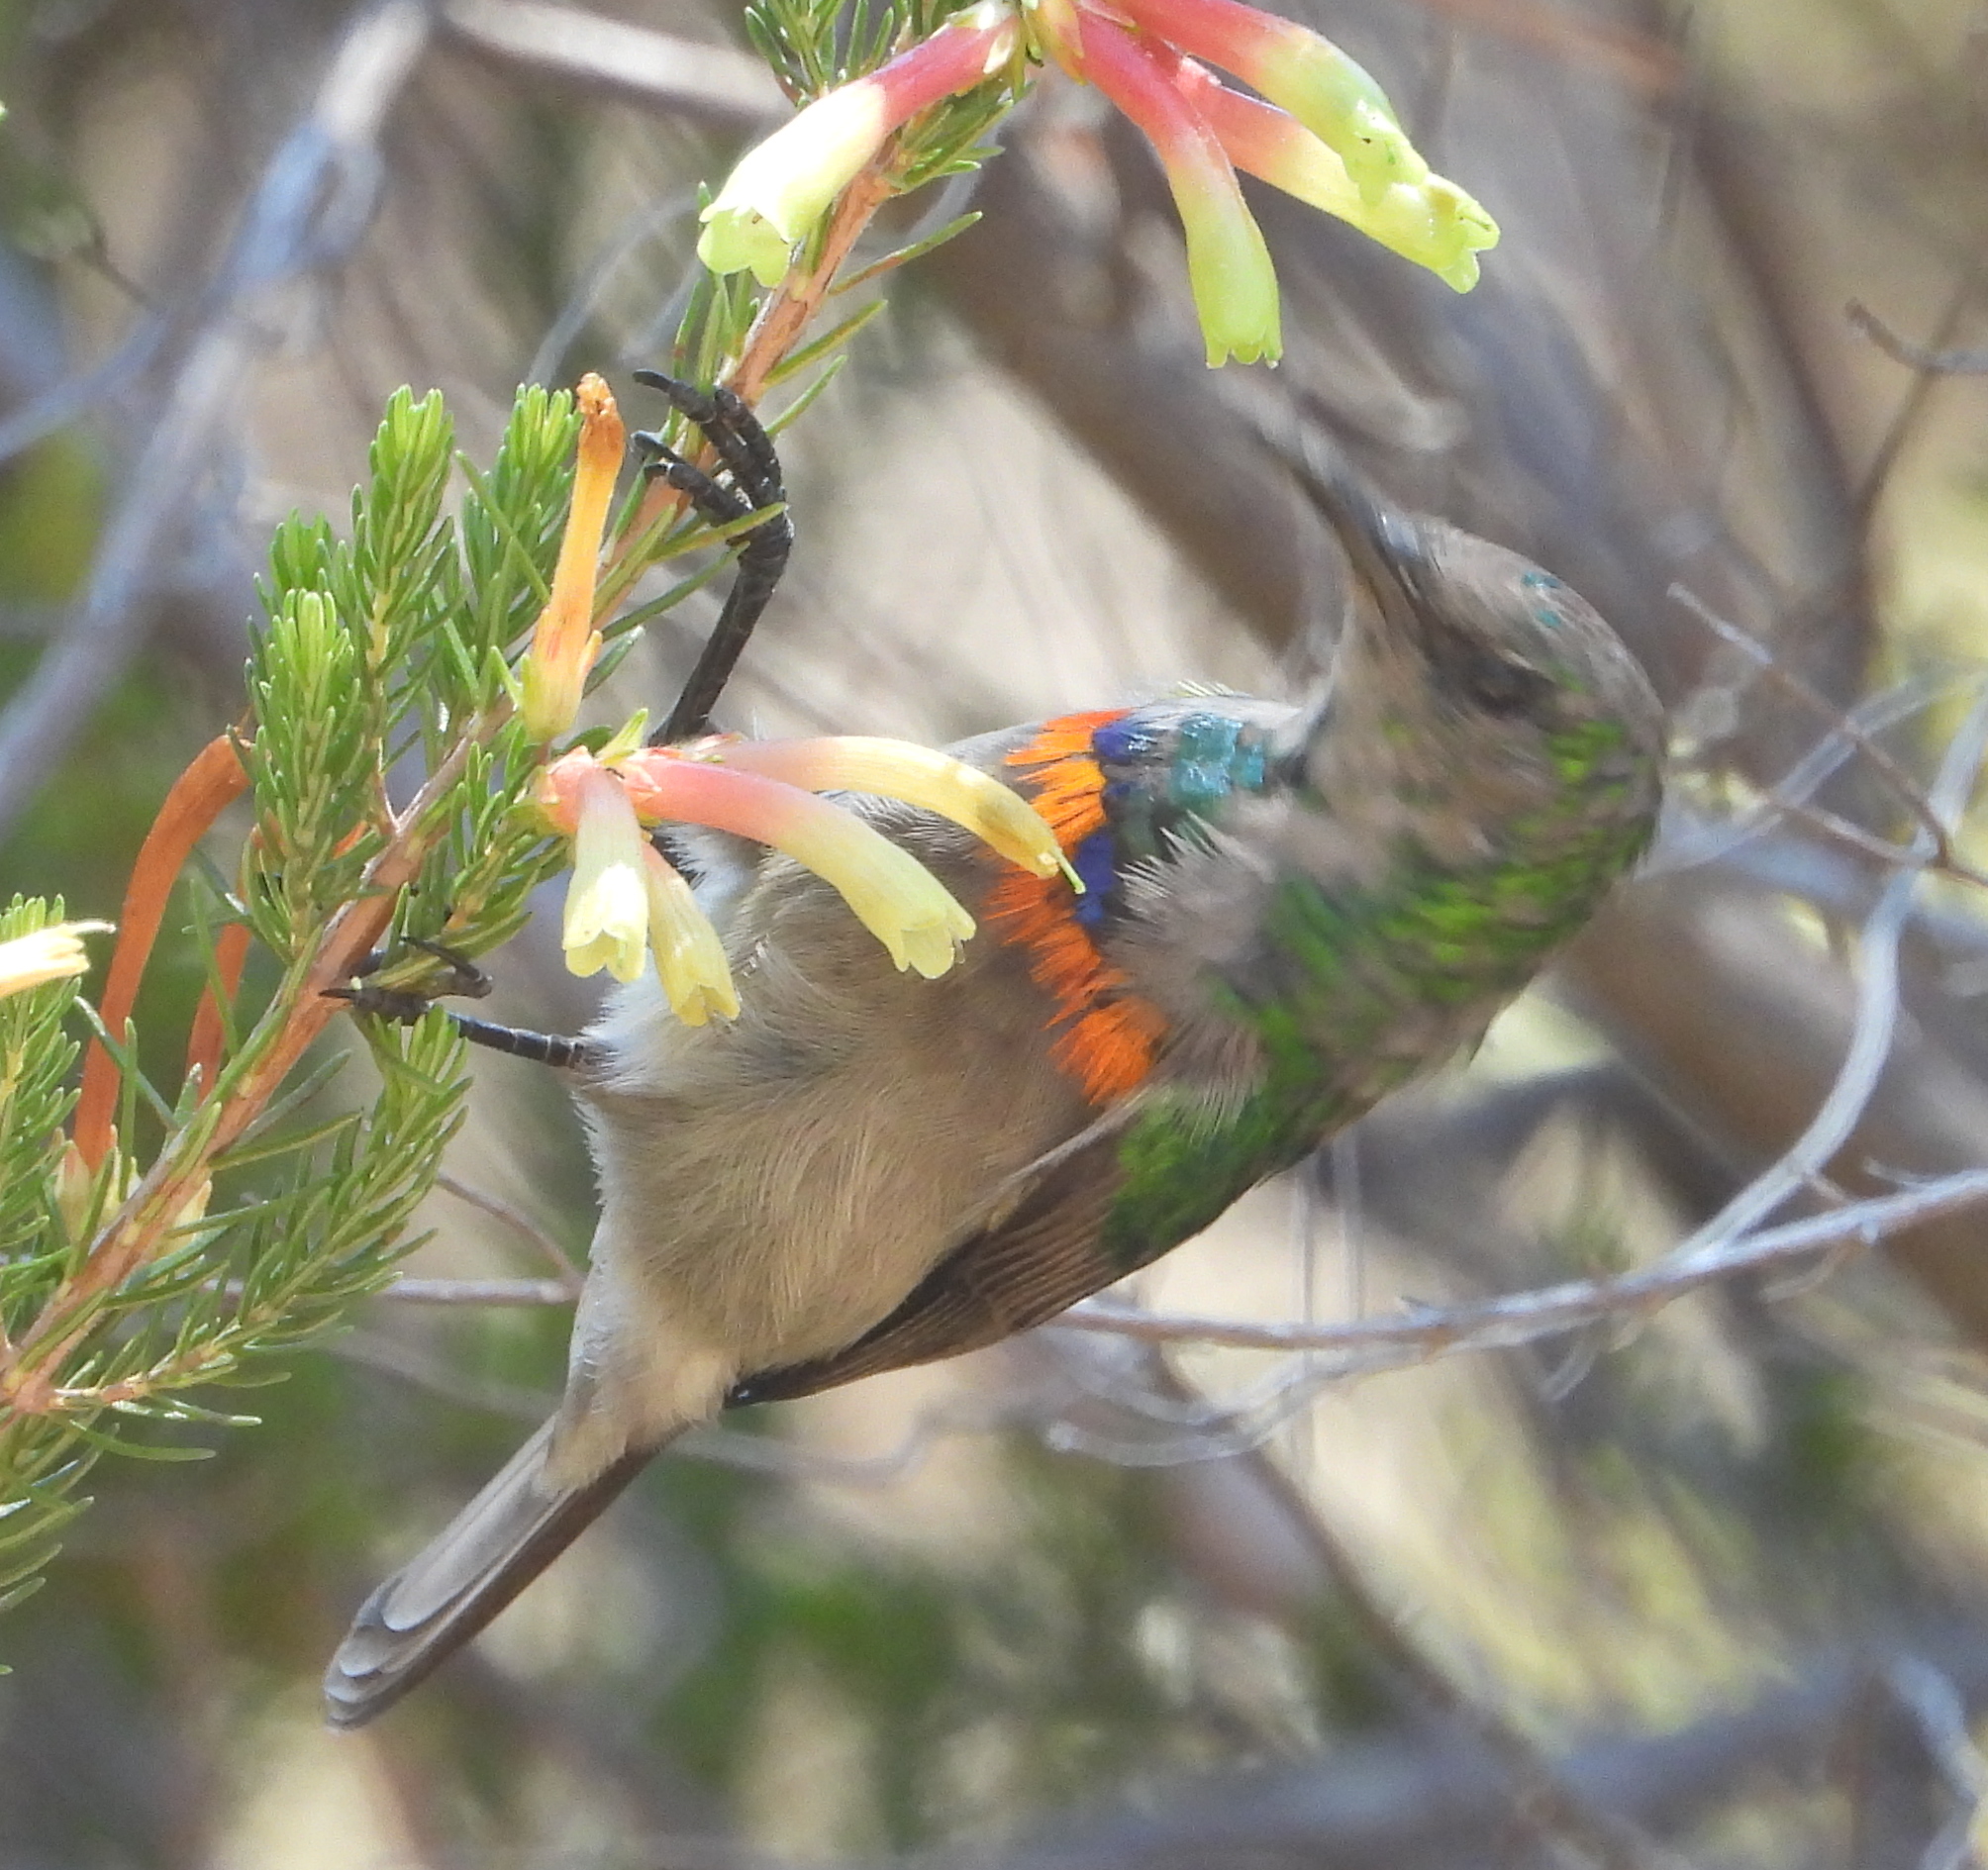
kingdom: Animalia
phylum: Chordata
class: Aves
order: Passeriformes
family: Nectariniidae
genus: Cinnyris
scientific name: Cinnyris chalybeus
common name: Southern double-collared sunbird
